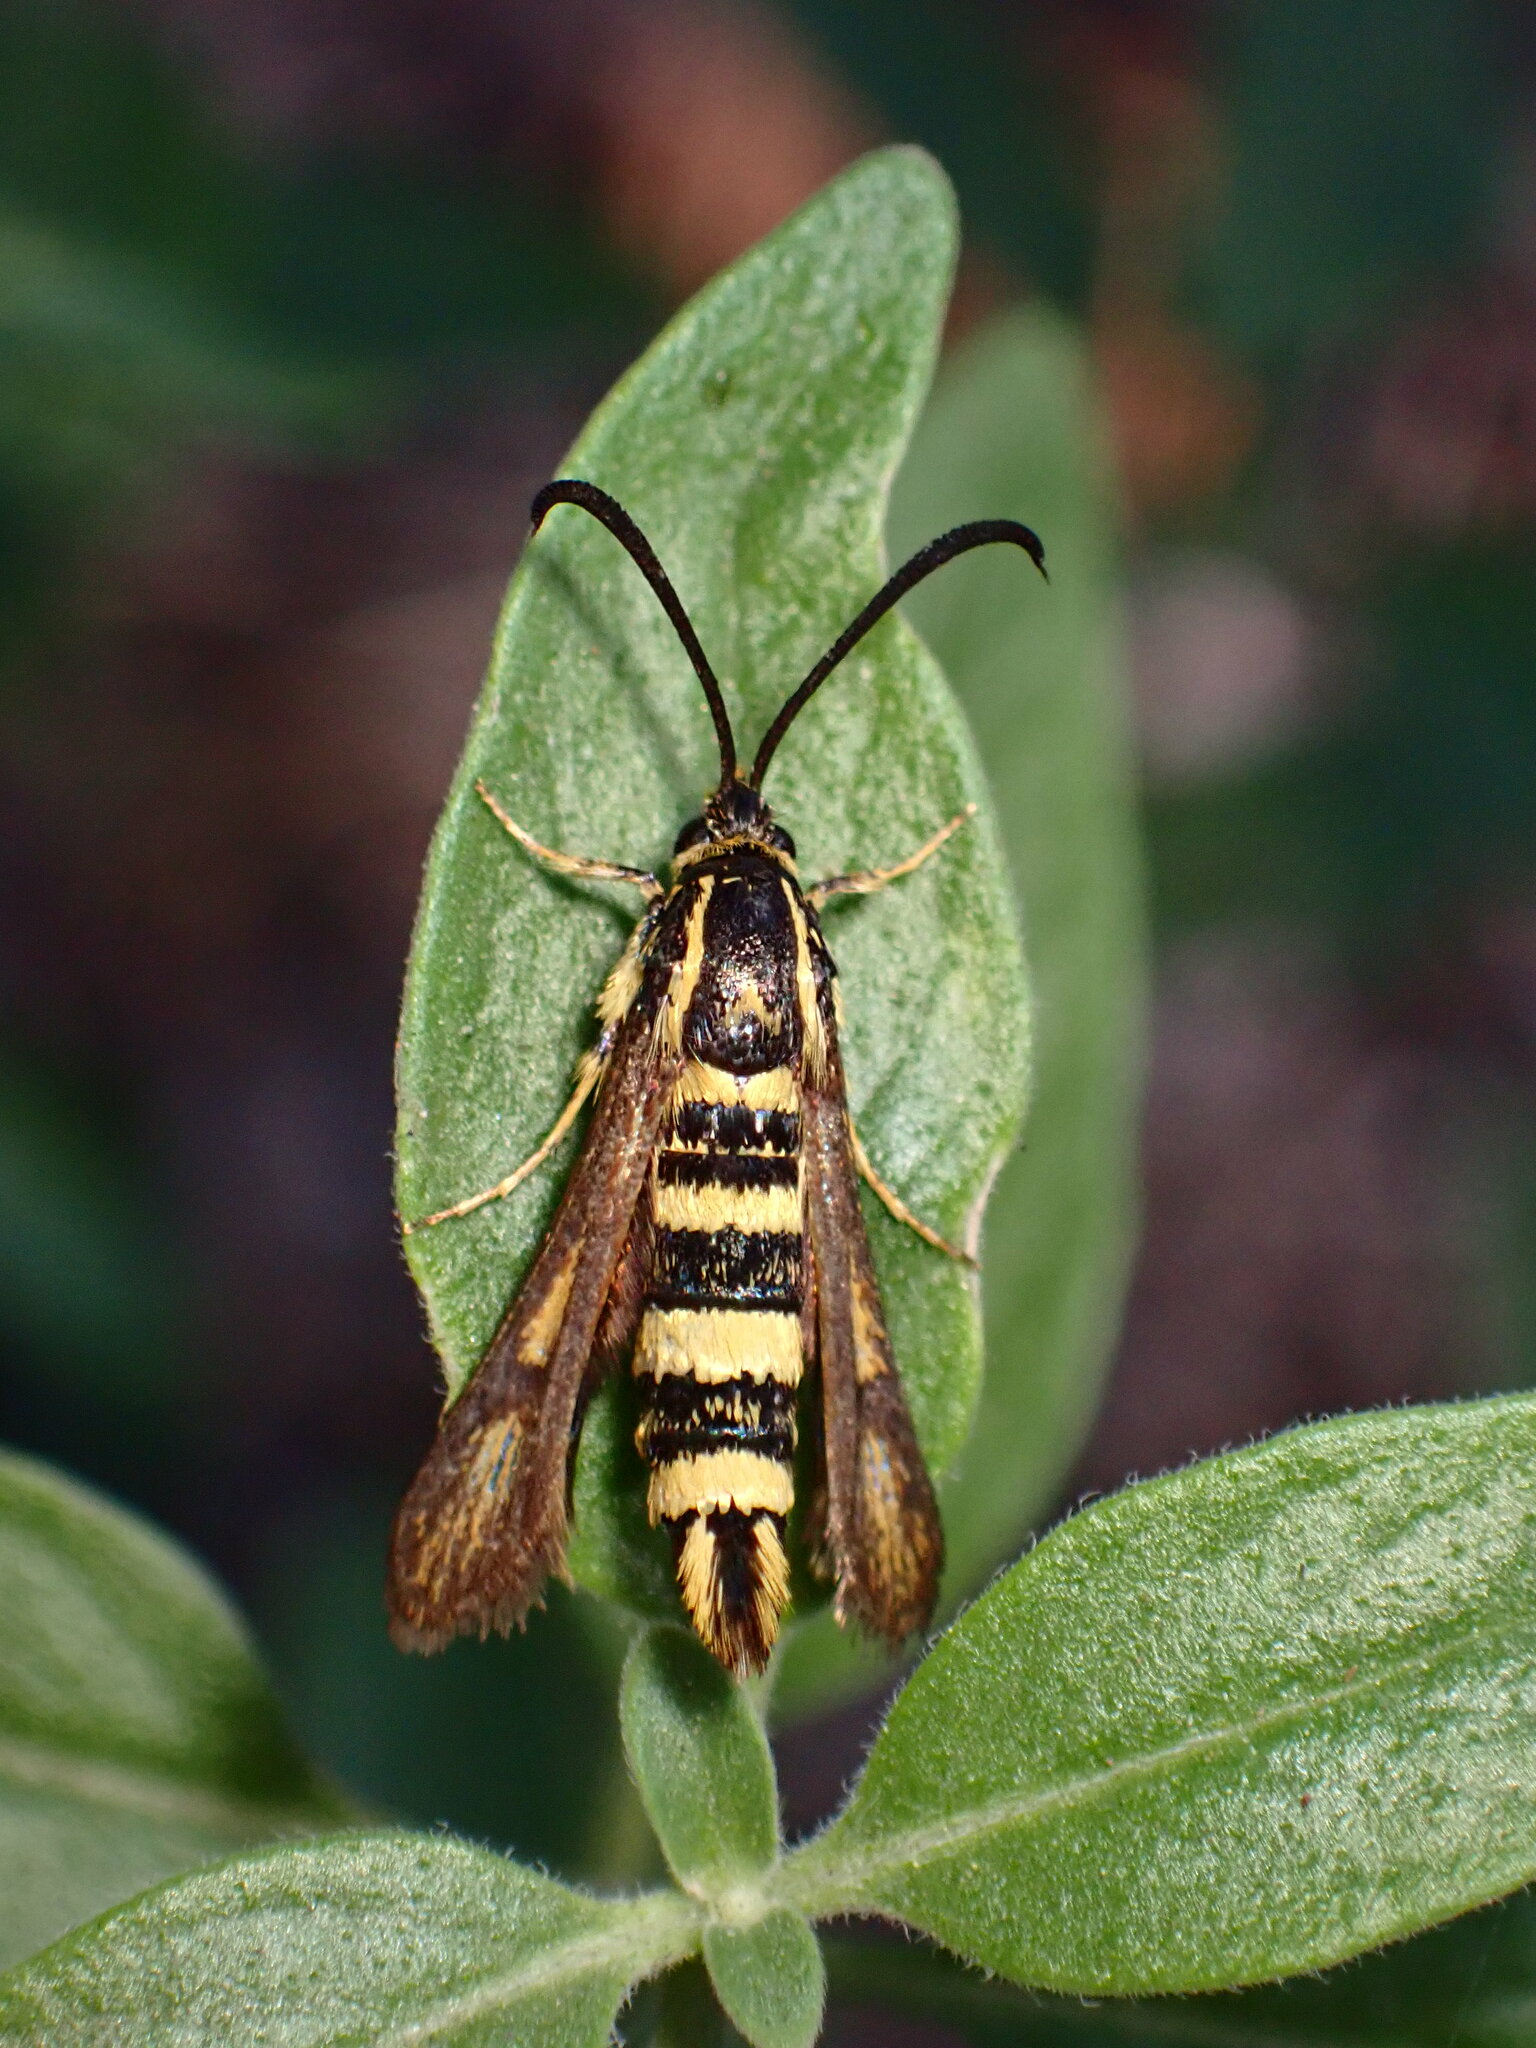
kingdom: Animalia
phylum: Arthropoda
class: Insecta
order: Lepidoptera
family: Sesiidae
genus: Penstemonia
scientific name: Penstemonia clarkei
